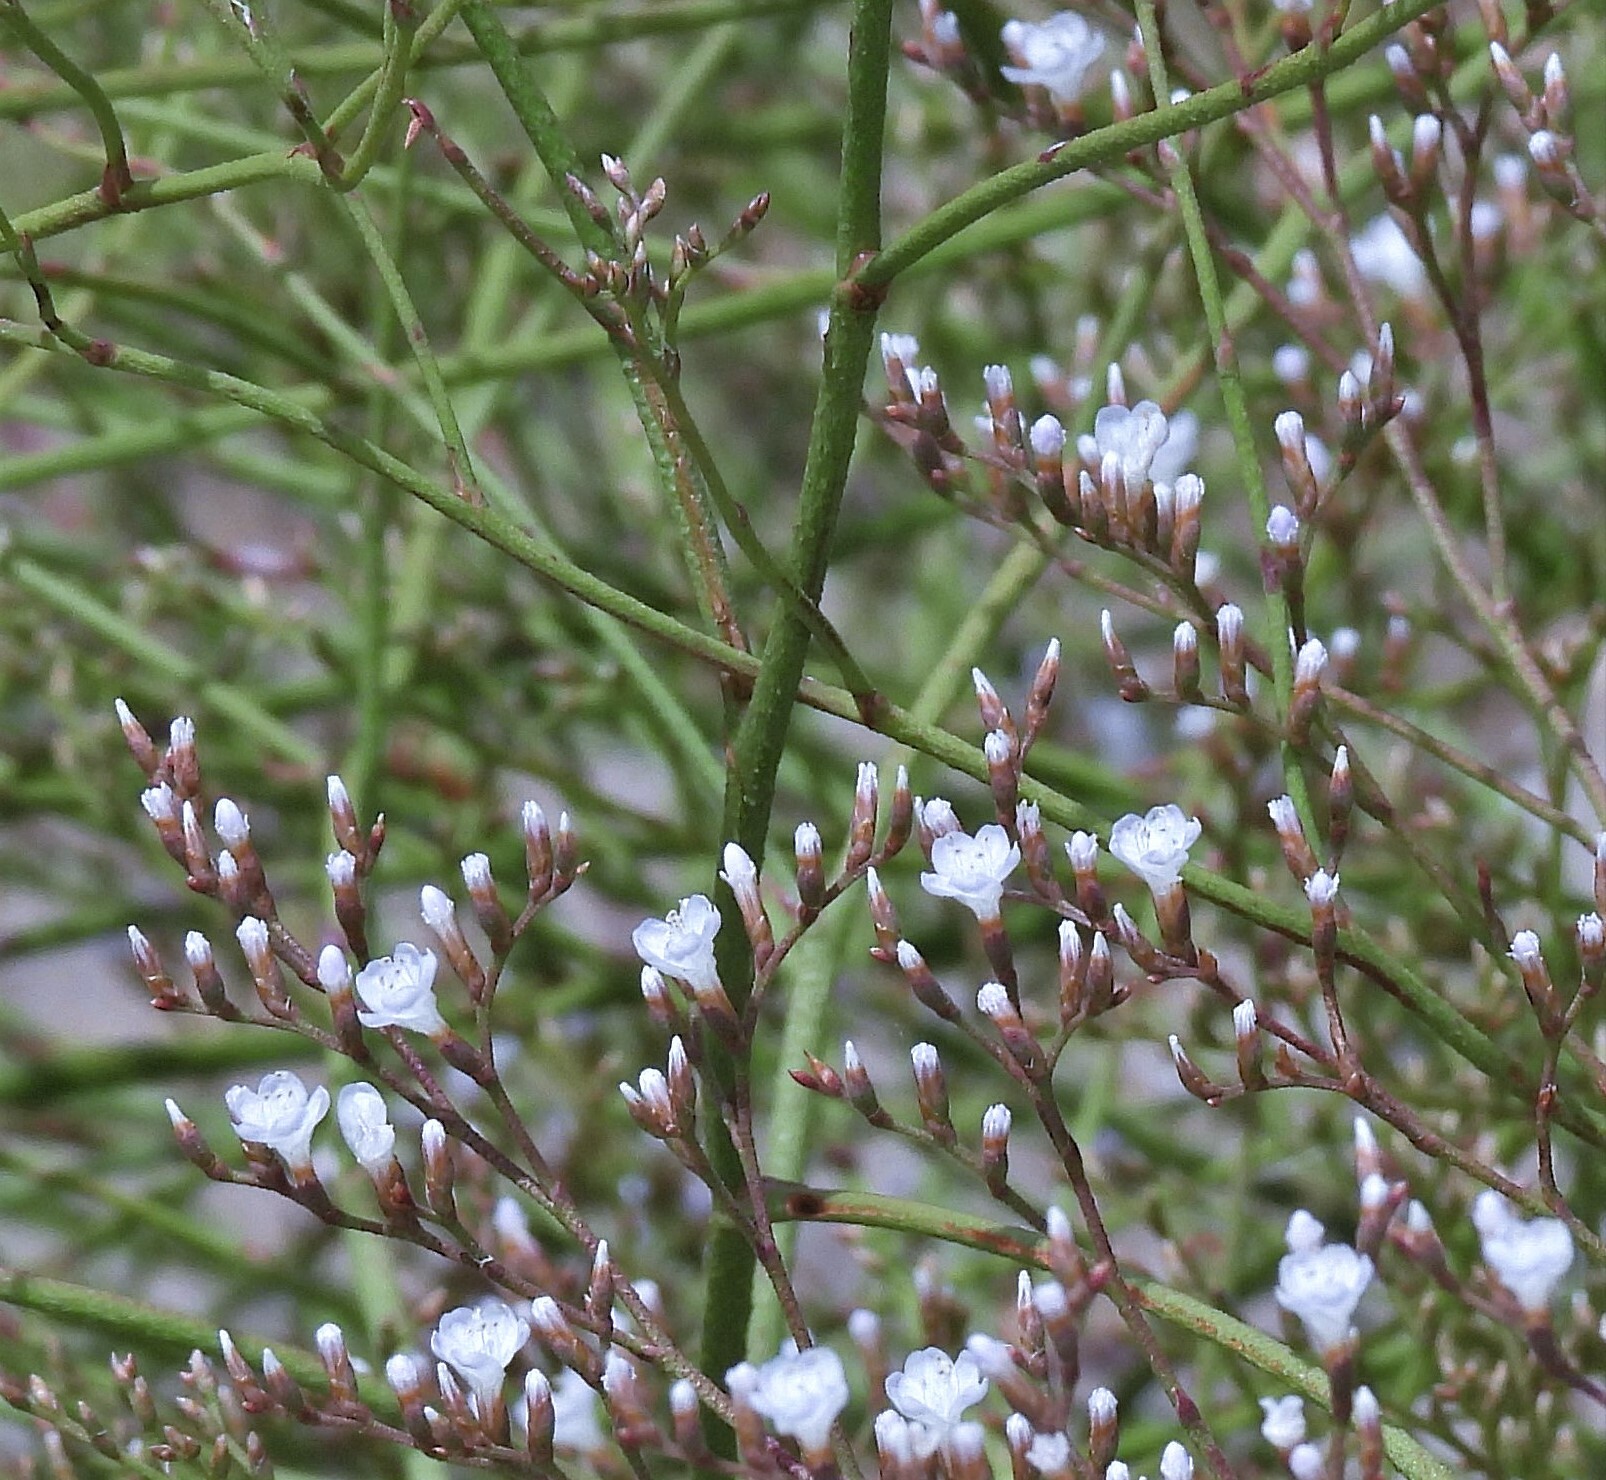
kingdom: Plantae
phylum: Tracheophyta
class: Magnoliopsida
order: Caryophyllales
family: Plumbaginaceae
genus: Limonium
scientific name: Limonium brasiliense
